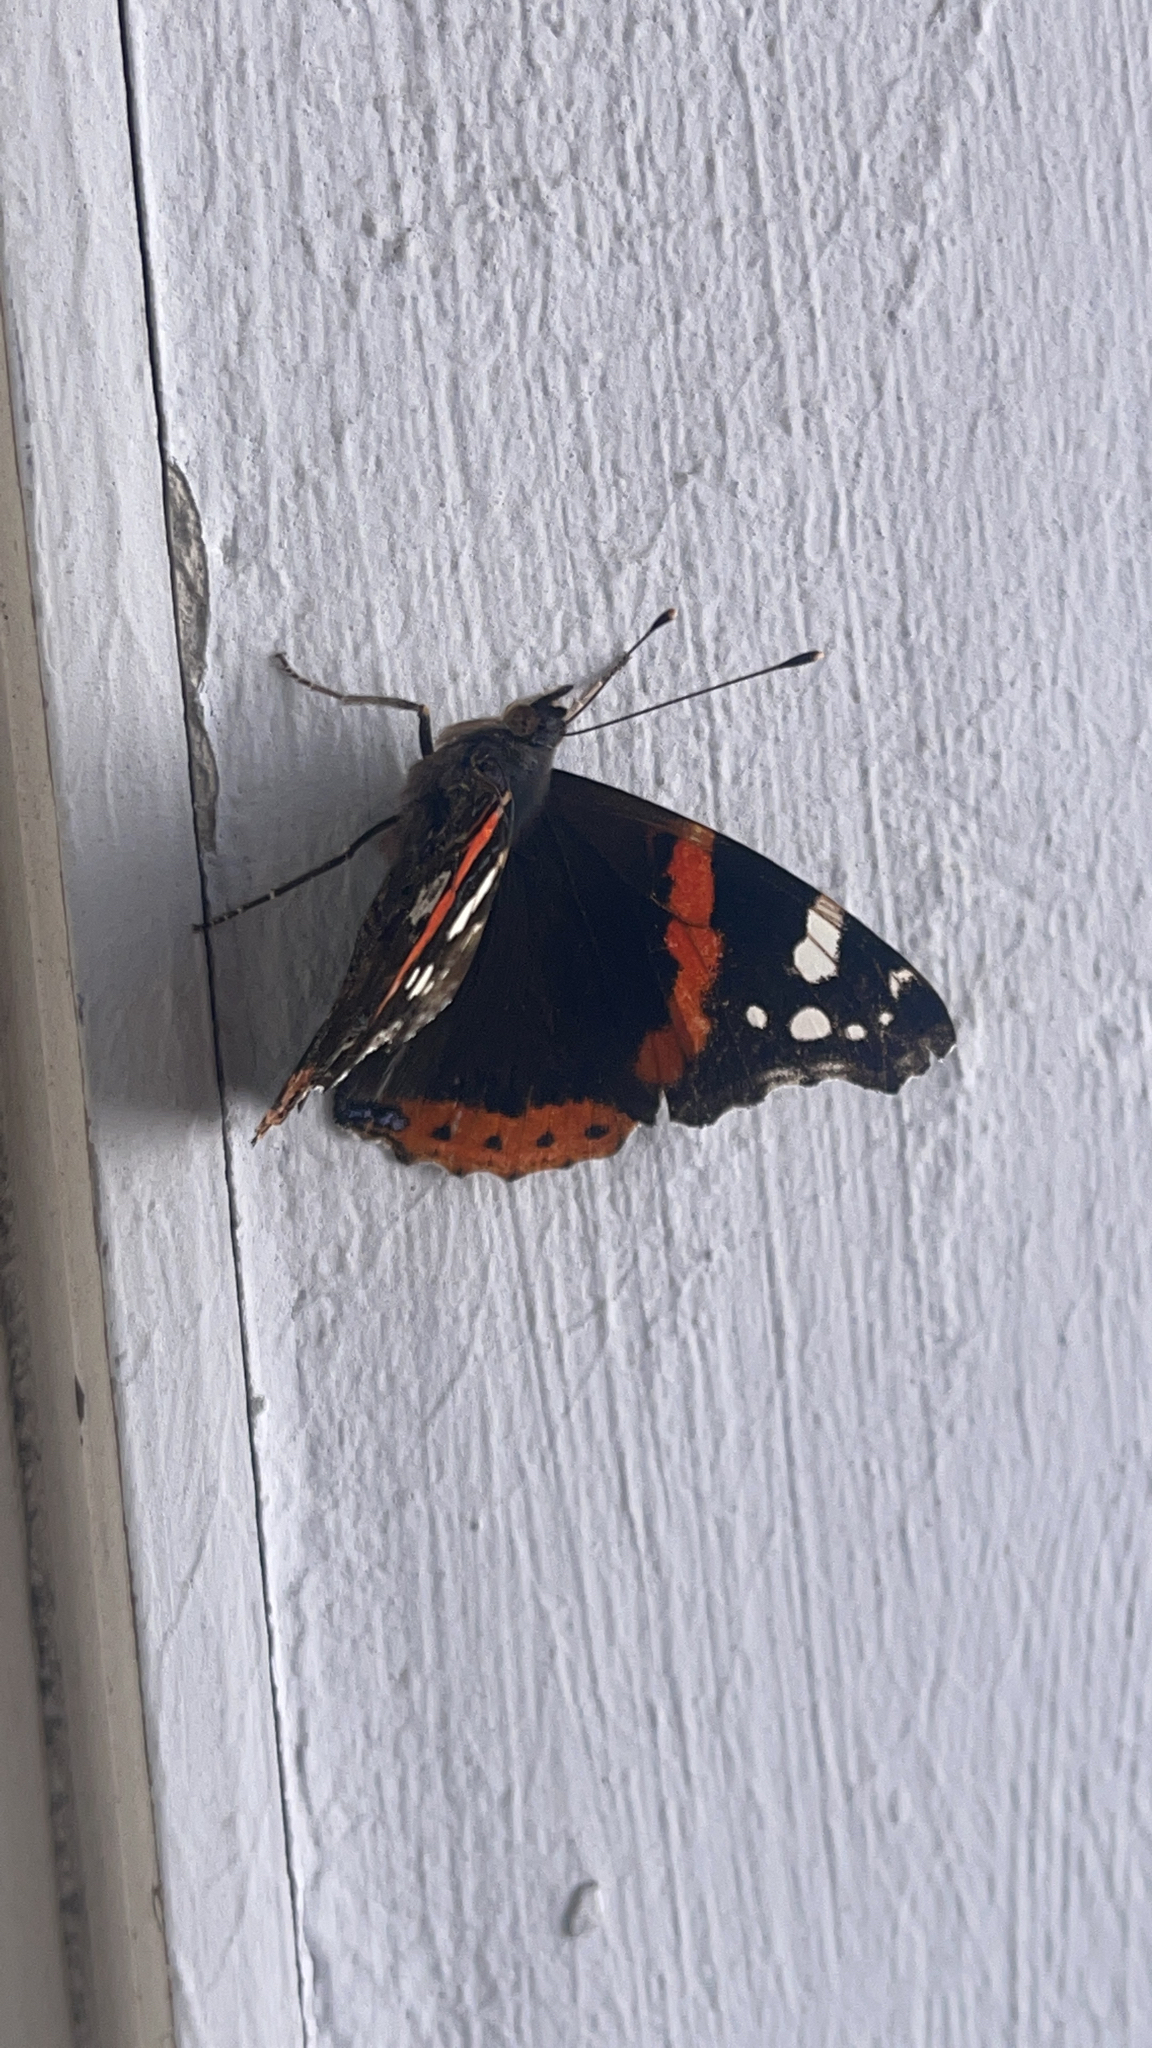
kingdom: Animalia
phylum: Arthropoda
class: Insecta
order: Lepidoptera
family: Nymphalidae
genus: Vanessa
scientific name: Vanessa atalanta
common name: Red admiral
